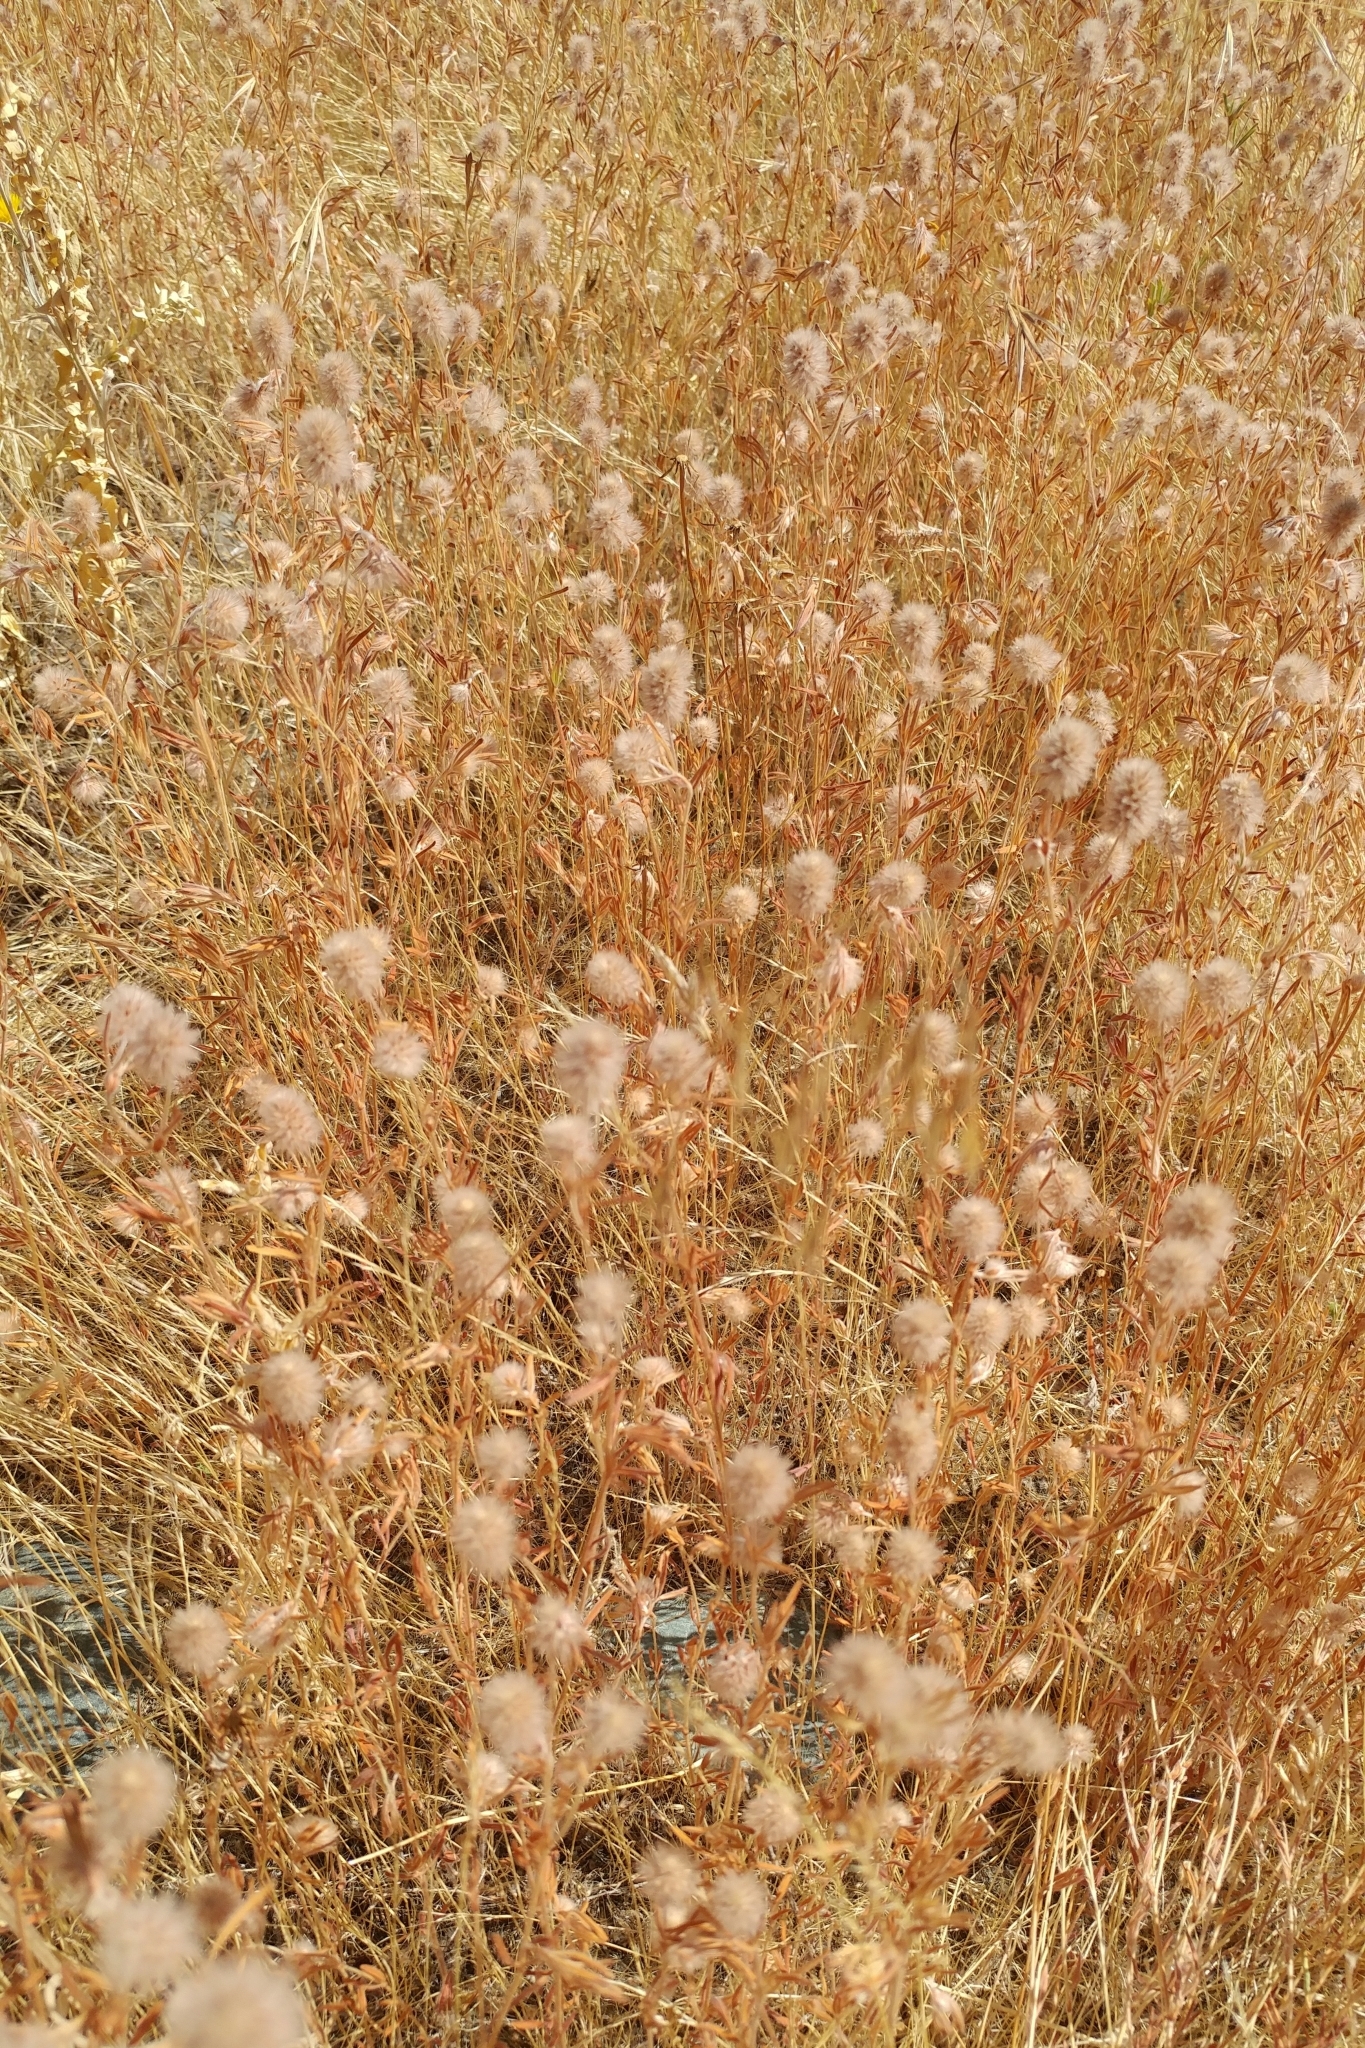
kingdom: Plantae
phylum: Tracheophyta
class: Magnoliopsida
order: Fabales
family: Fabaceae
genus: Trifolium
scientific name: Trifolium arvense
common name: Hare's-foot clover
